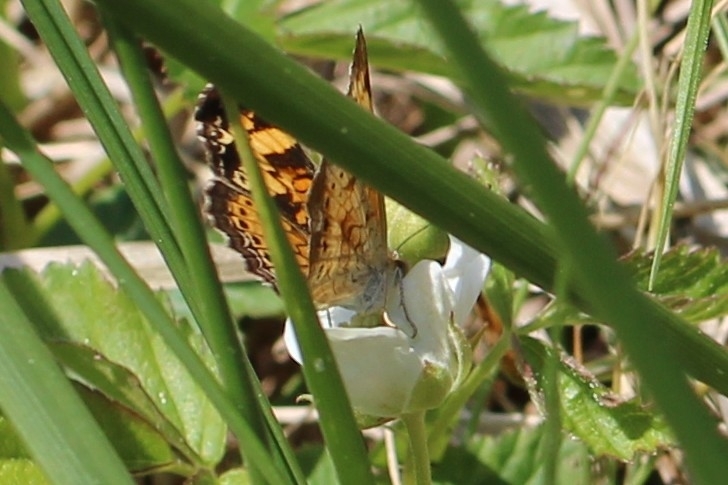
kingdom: Animalia
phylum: Arthropoda
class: Insecta
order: Lepidoptera
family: Nymphalidae
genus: Phyciodes
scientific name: Phyciodes tharos
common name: Pearl crescent
